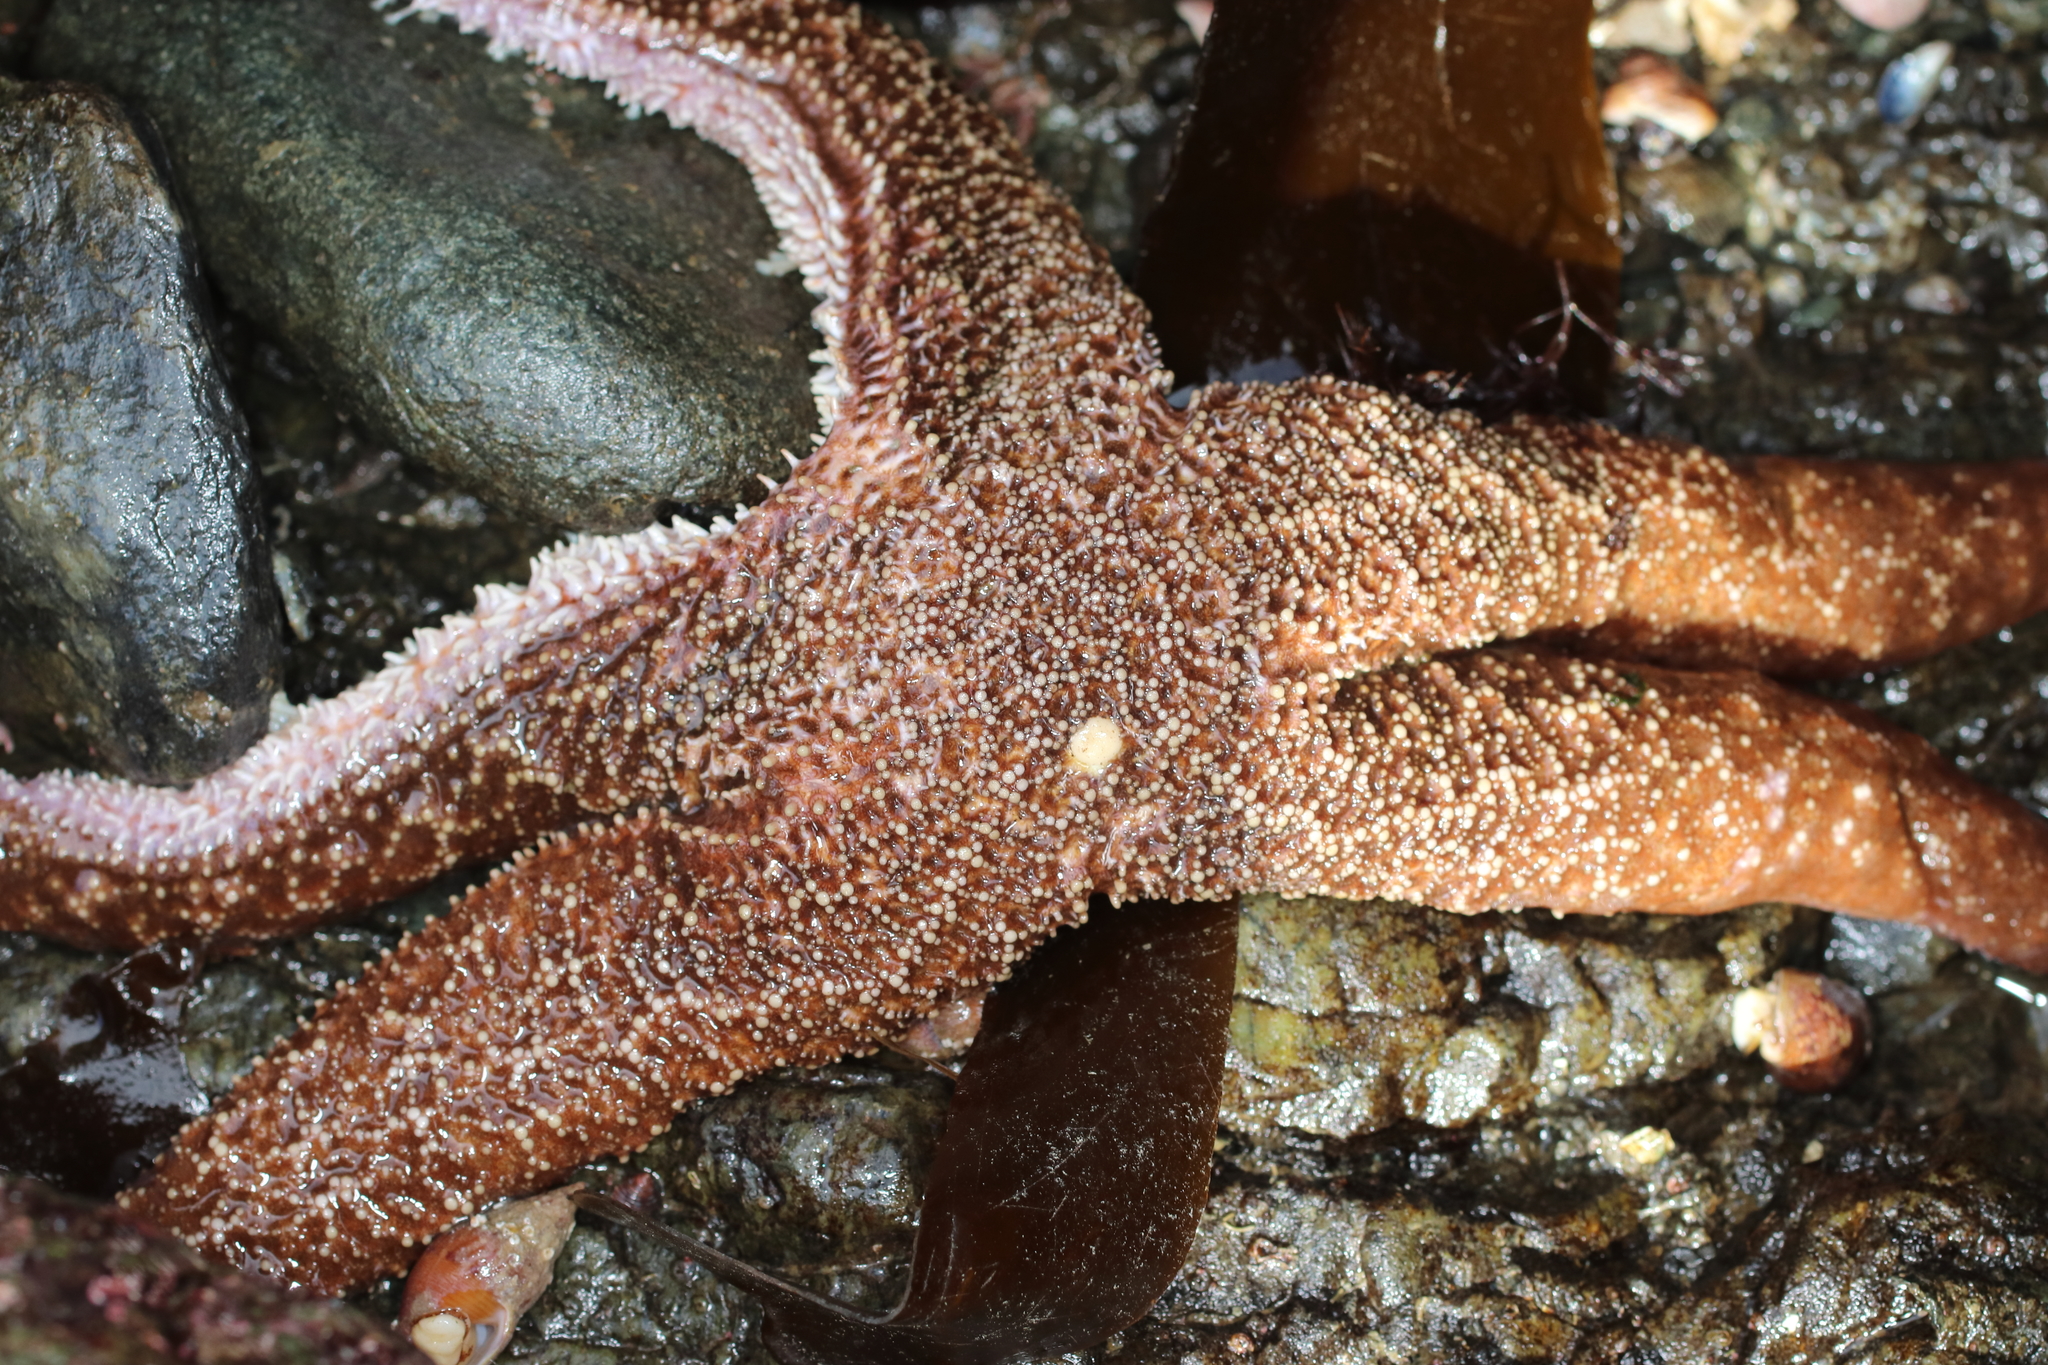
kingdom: Animalia
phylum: Echinodermata
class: Asteroidea
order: Forcipulatida
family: Asteriidae
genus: Evasterias
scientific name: Evasterias troschelii
